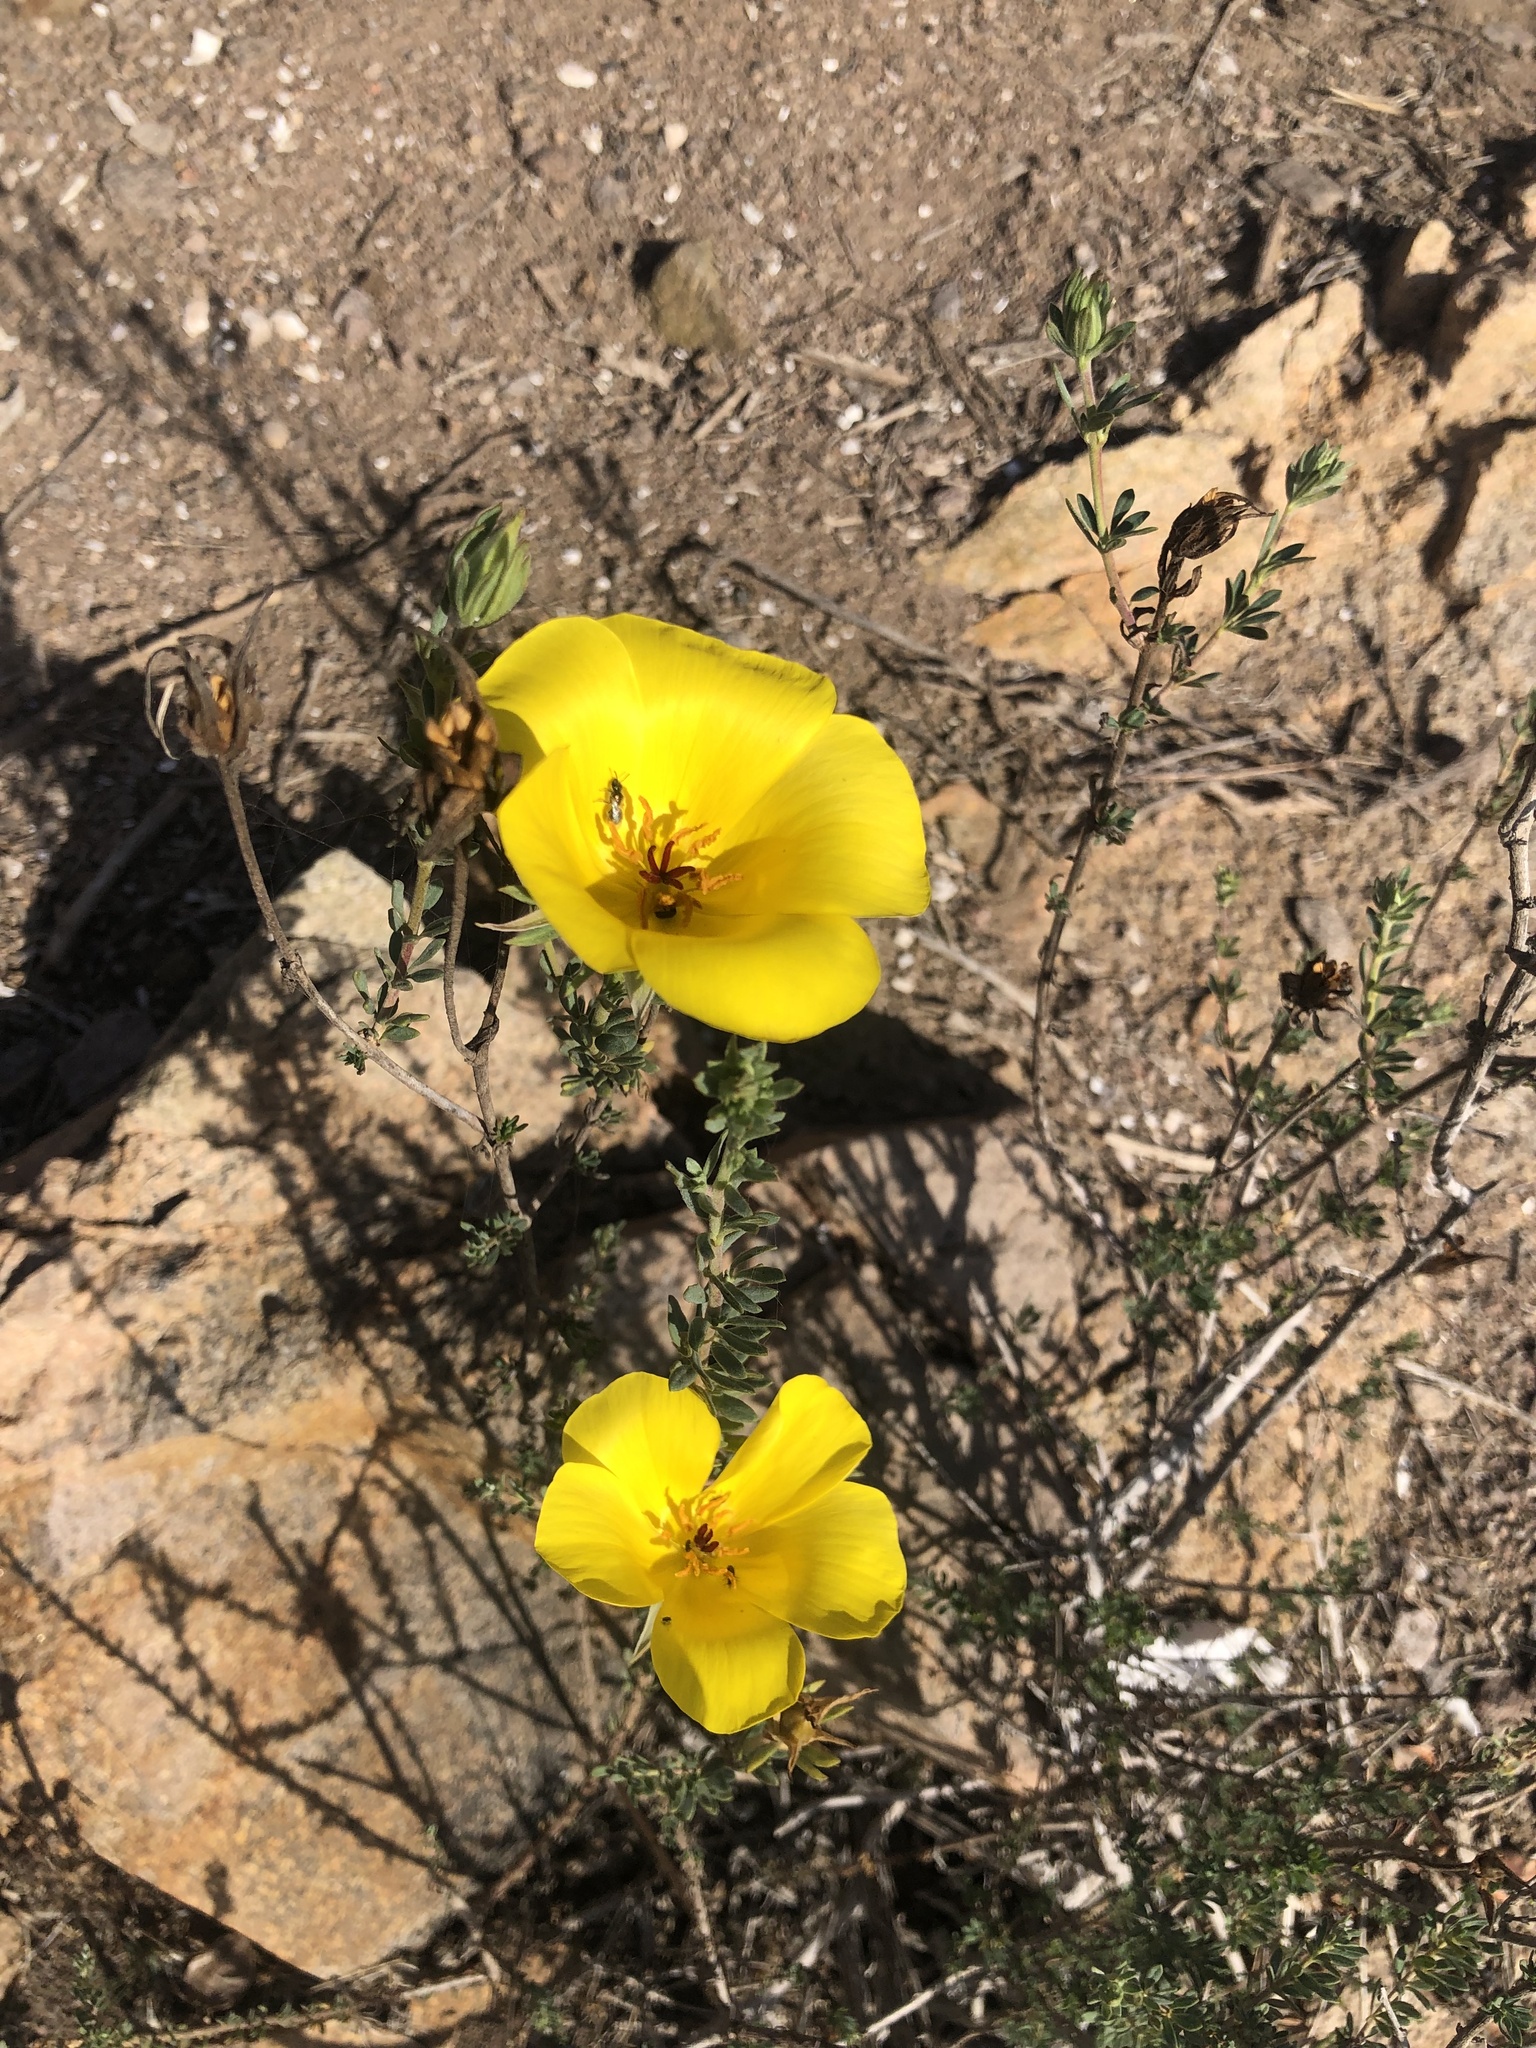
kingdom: Plantae
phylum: Tracheophyta
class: Magnoliopsida
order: Geraniales
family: Vivianiaceae
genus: Balbisia
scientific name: Balbisia peduncularis
